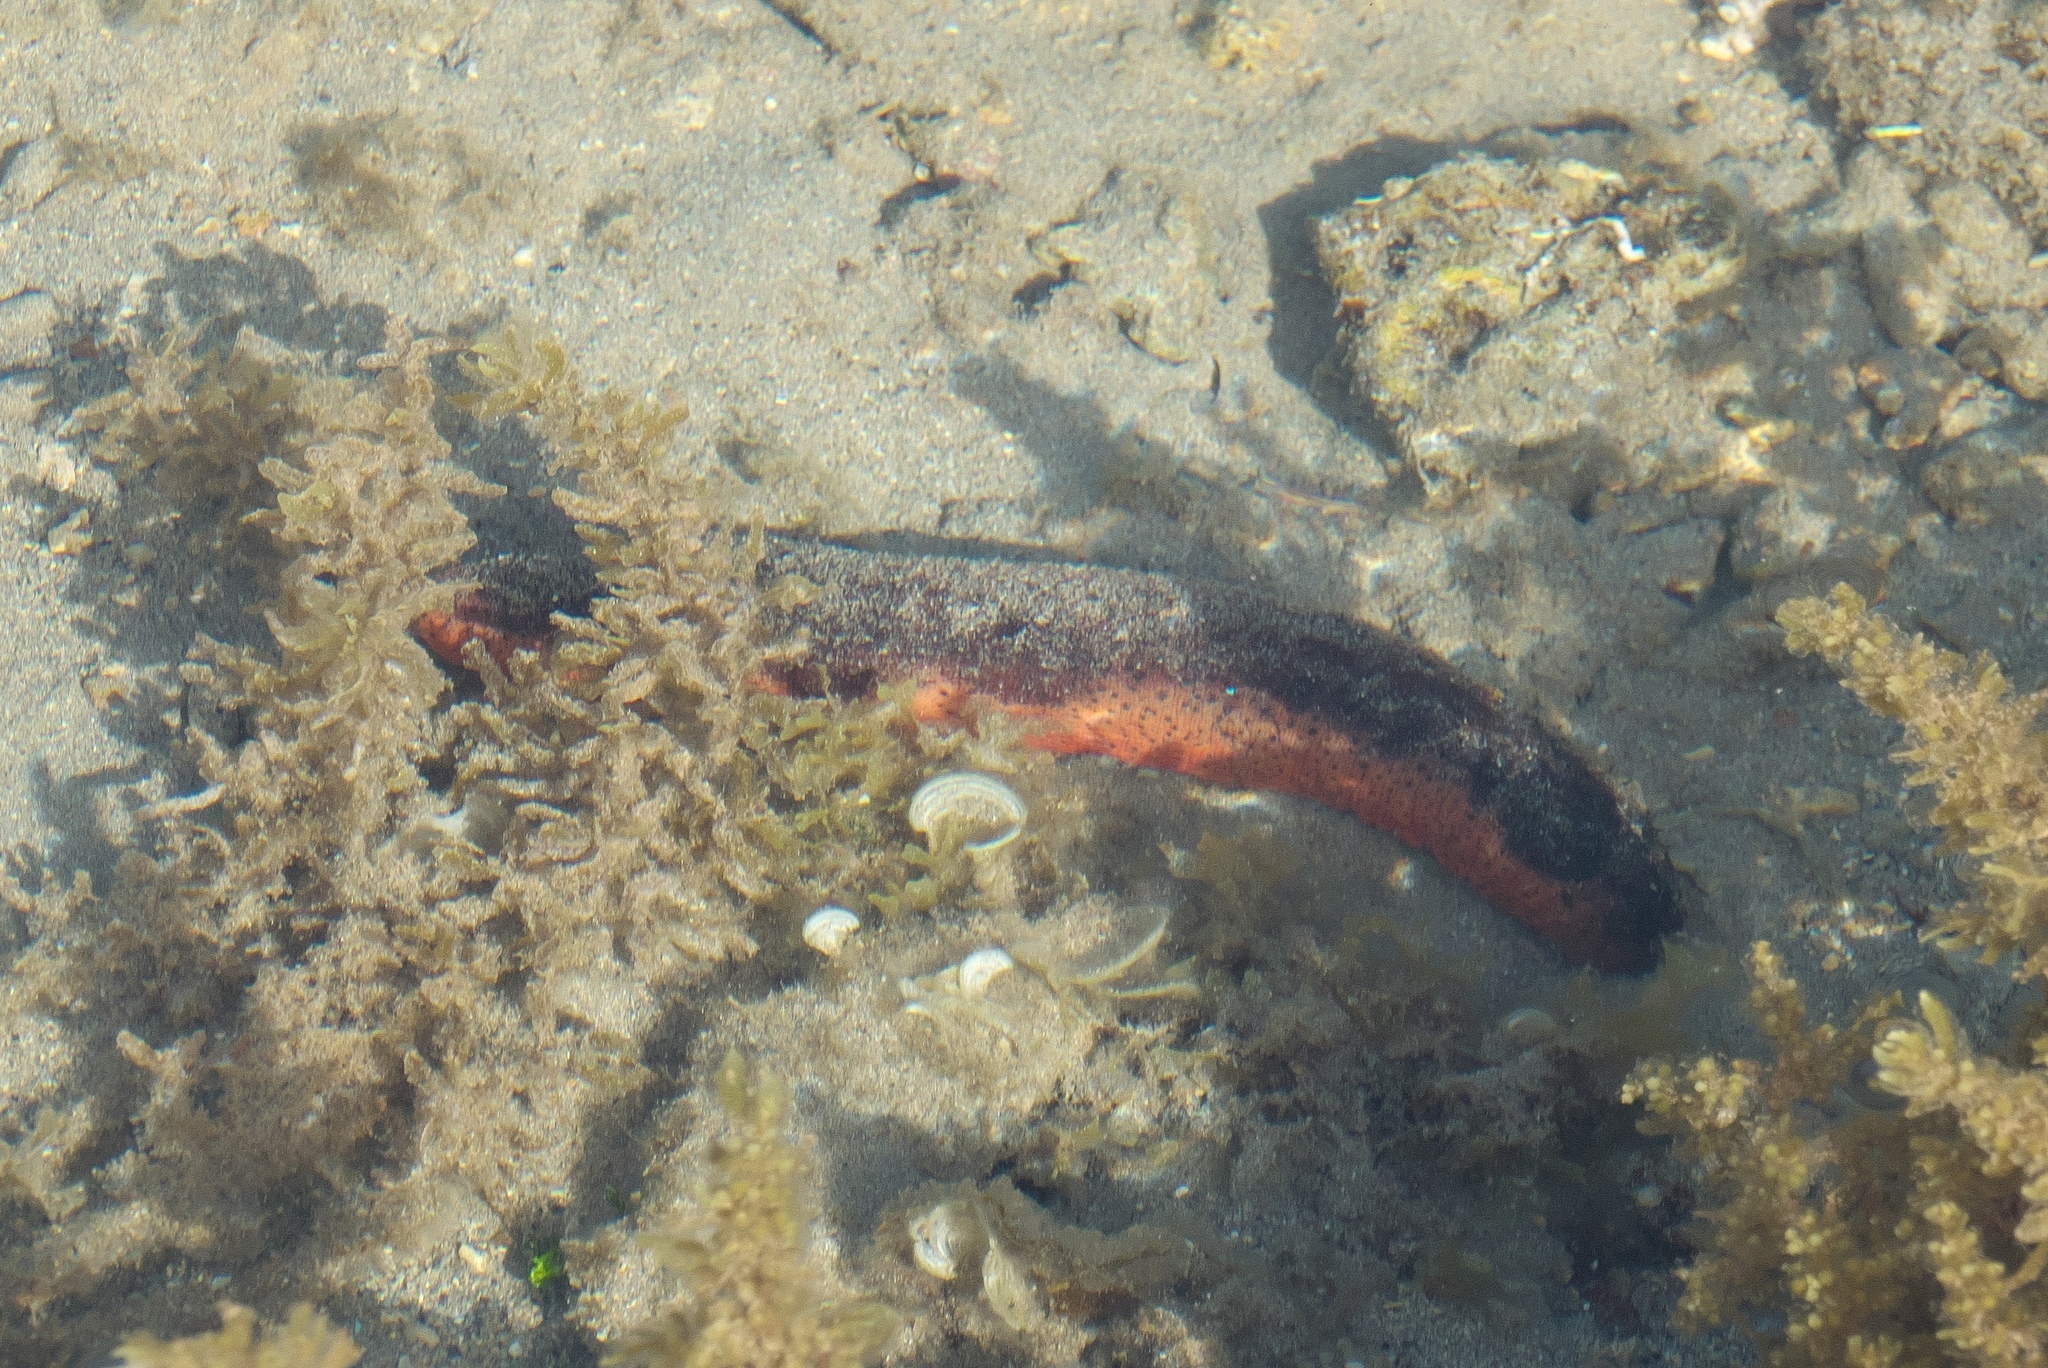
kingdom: Animalia
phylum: Echinodermata
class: Holothuroidea
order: Holothuriida
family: Holothuriidae
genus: Holothuria
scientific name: Holothuria edulis
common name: Pinkfish
